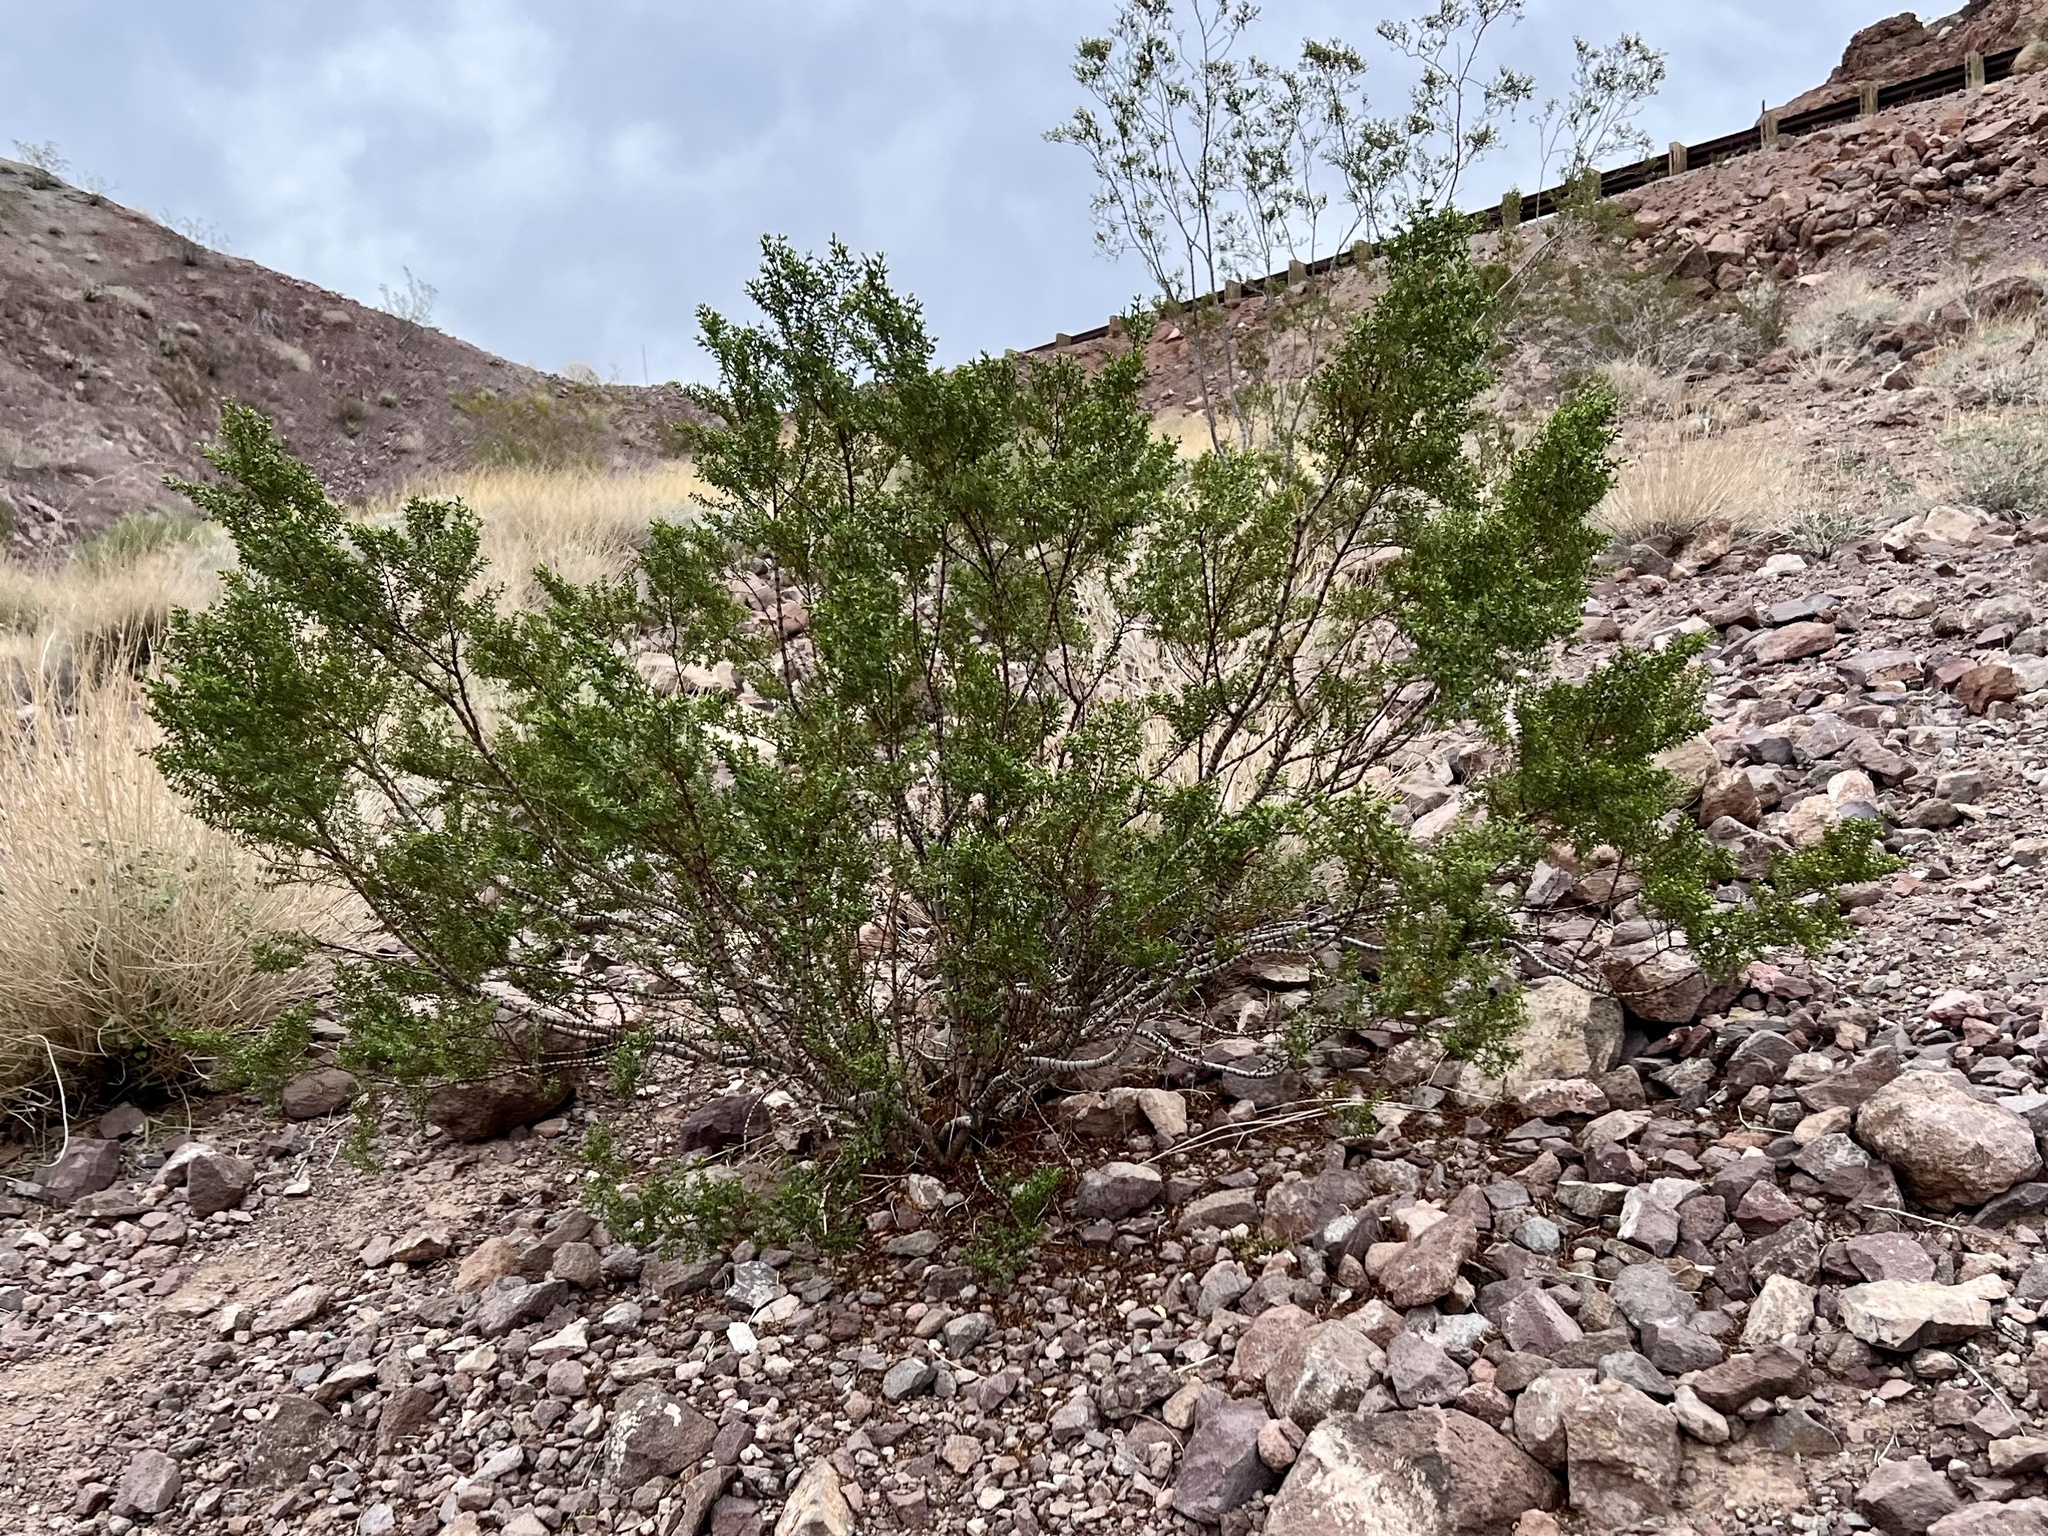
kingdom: Plantae
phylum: Tracheophyta
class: Magnoliopsida
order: Zygophyllales
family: Zygophyllaceae
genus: Larrea
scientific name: Larrea tridentata
